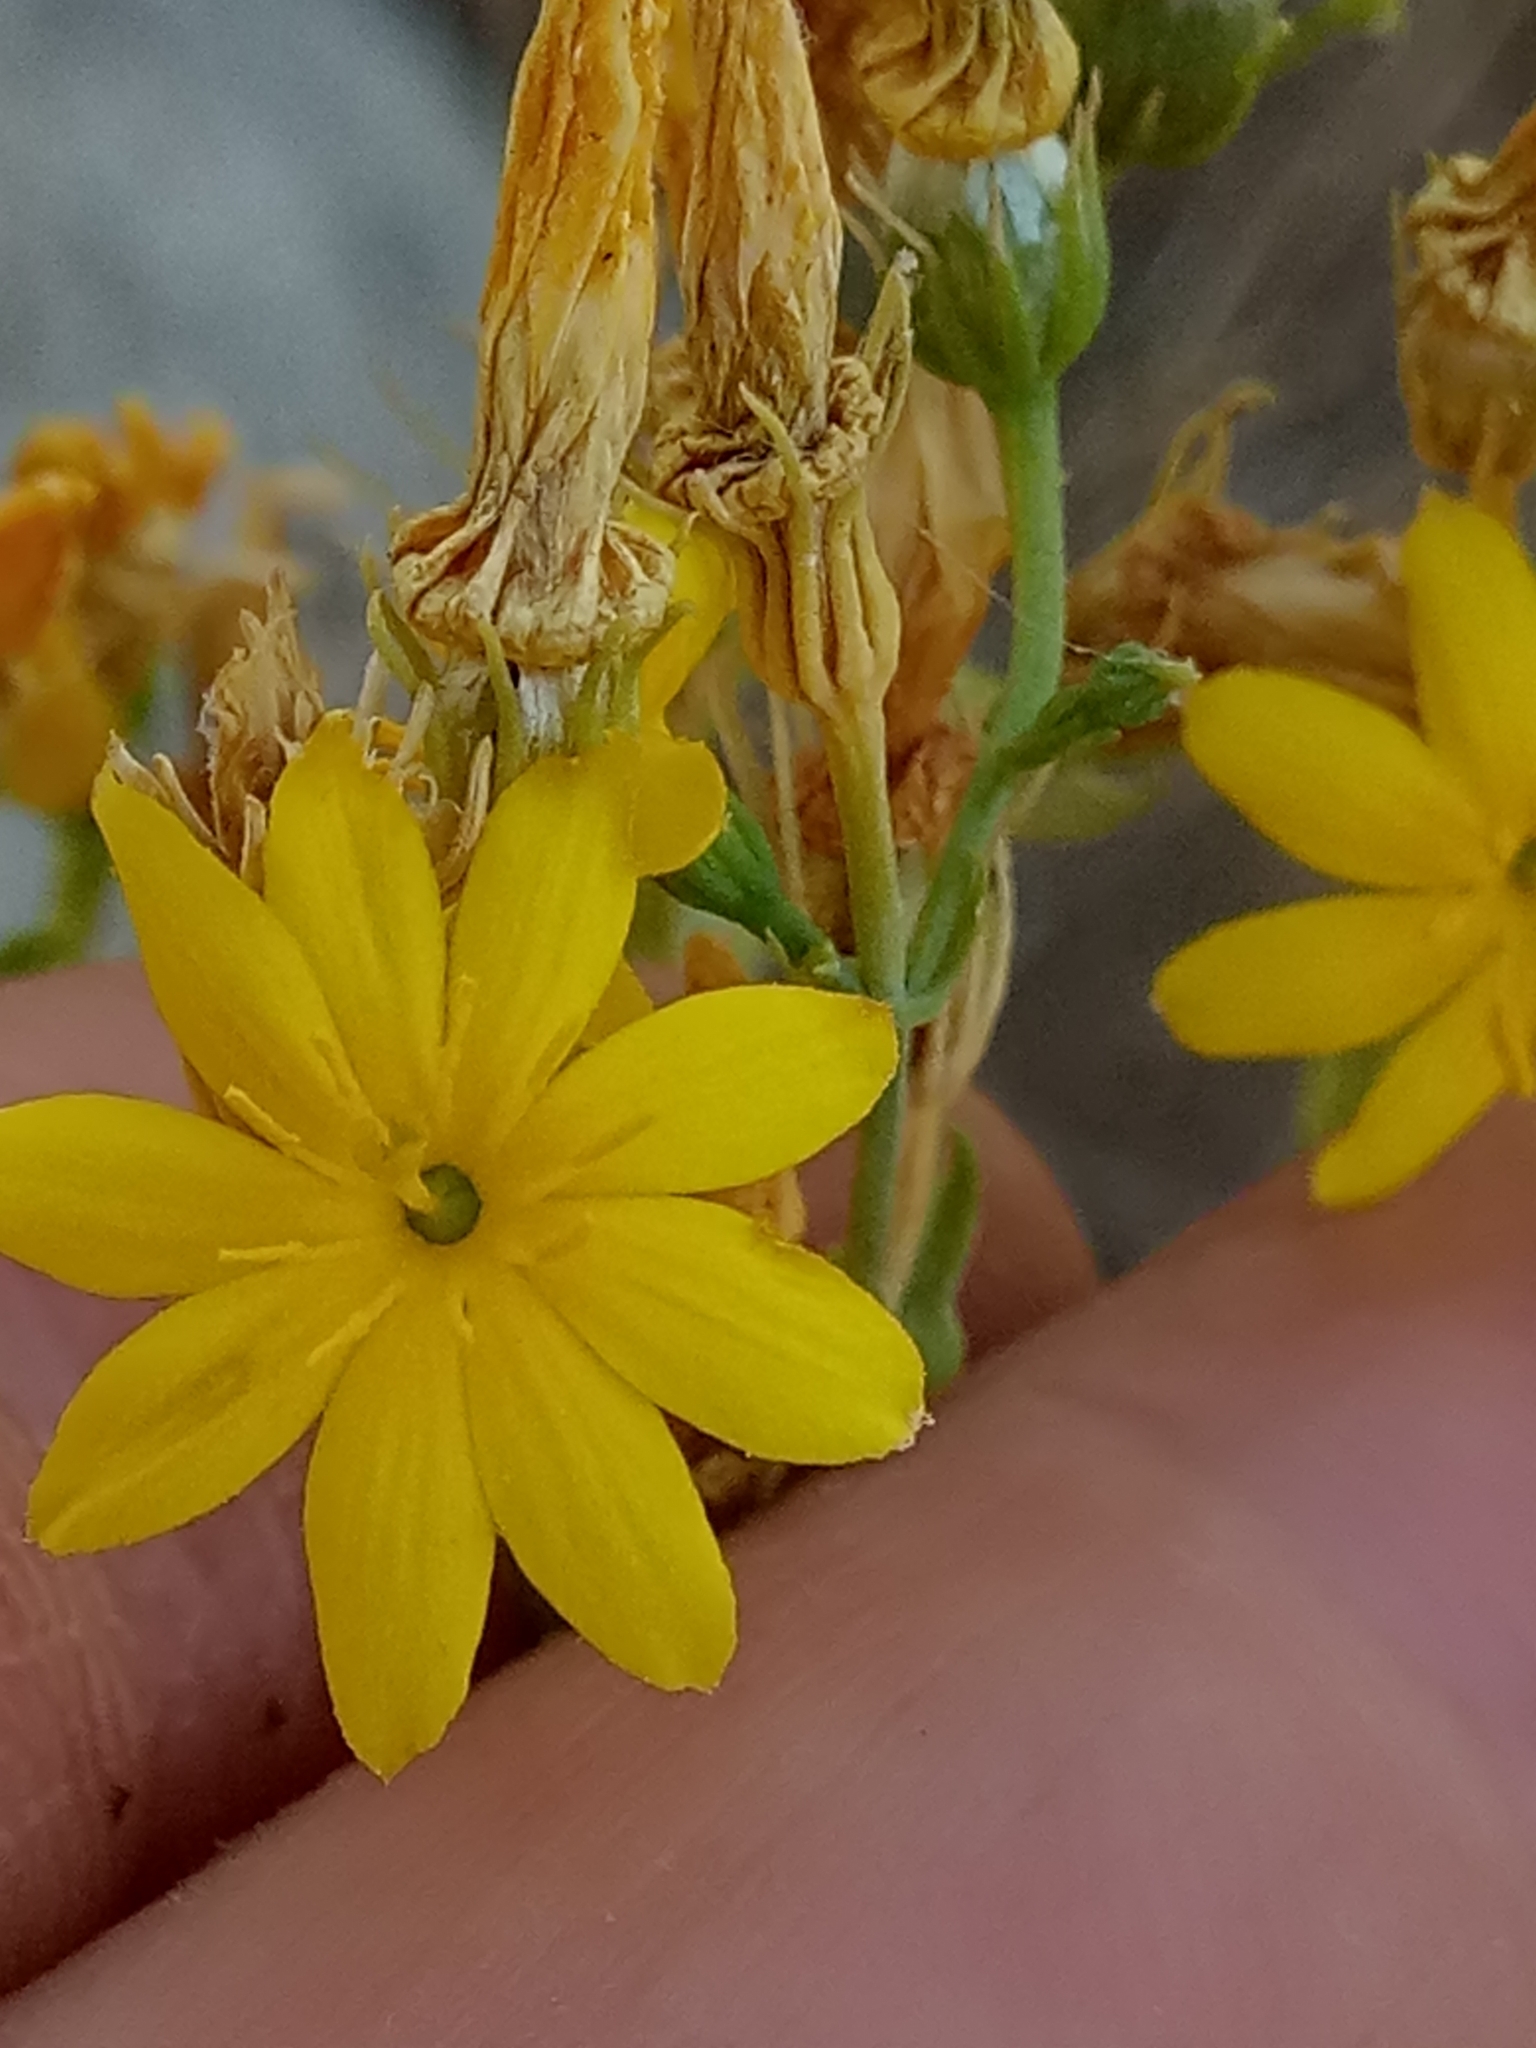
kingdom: Plantae
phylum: Tracheophyta
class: Magnoliopsida
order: Gentianales
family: Gentianaceae
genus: Blackstonia
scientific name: Blackstonia grandiflora
